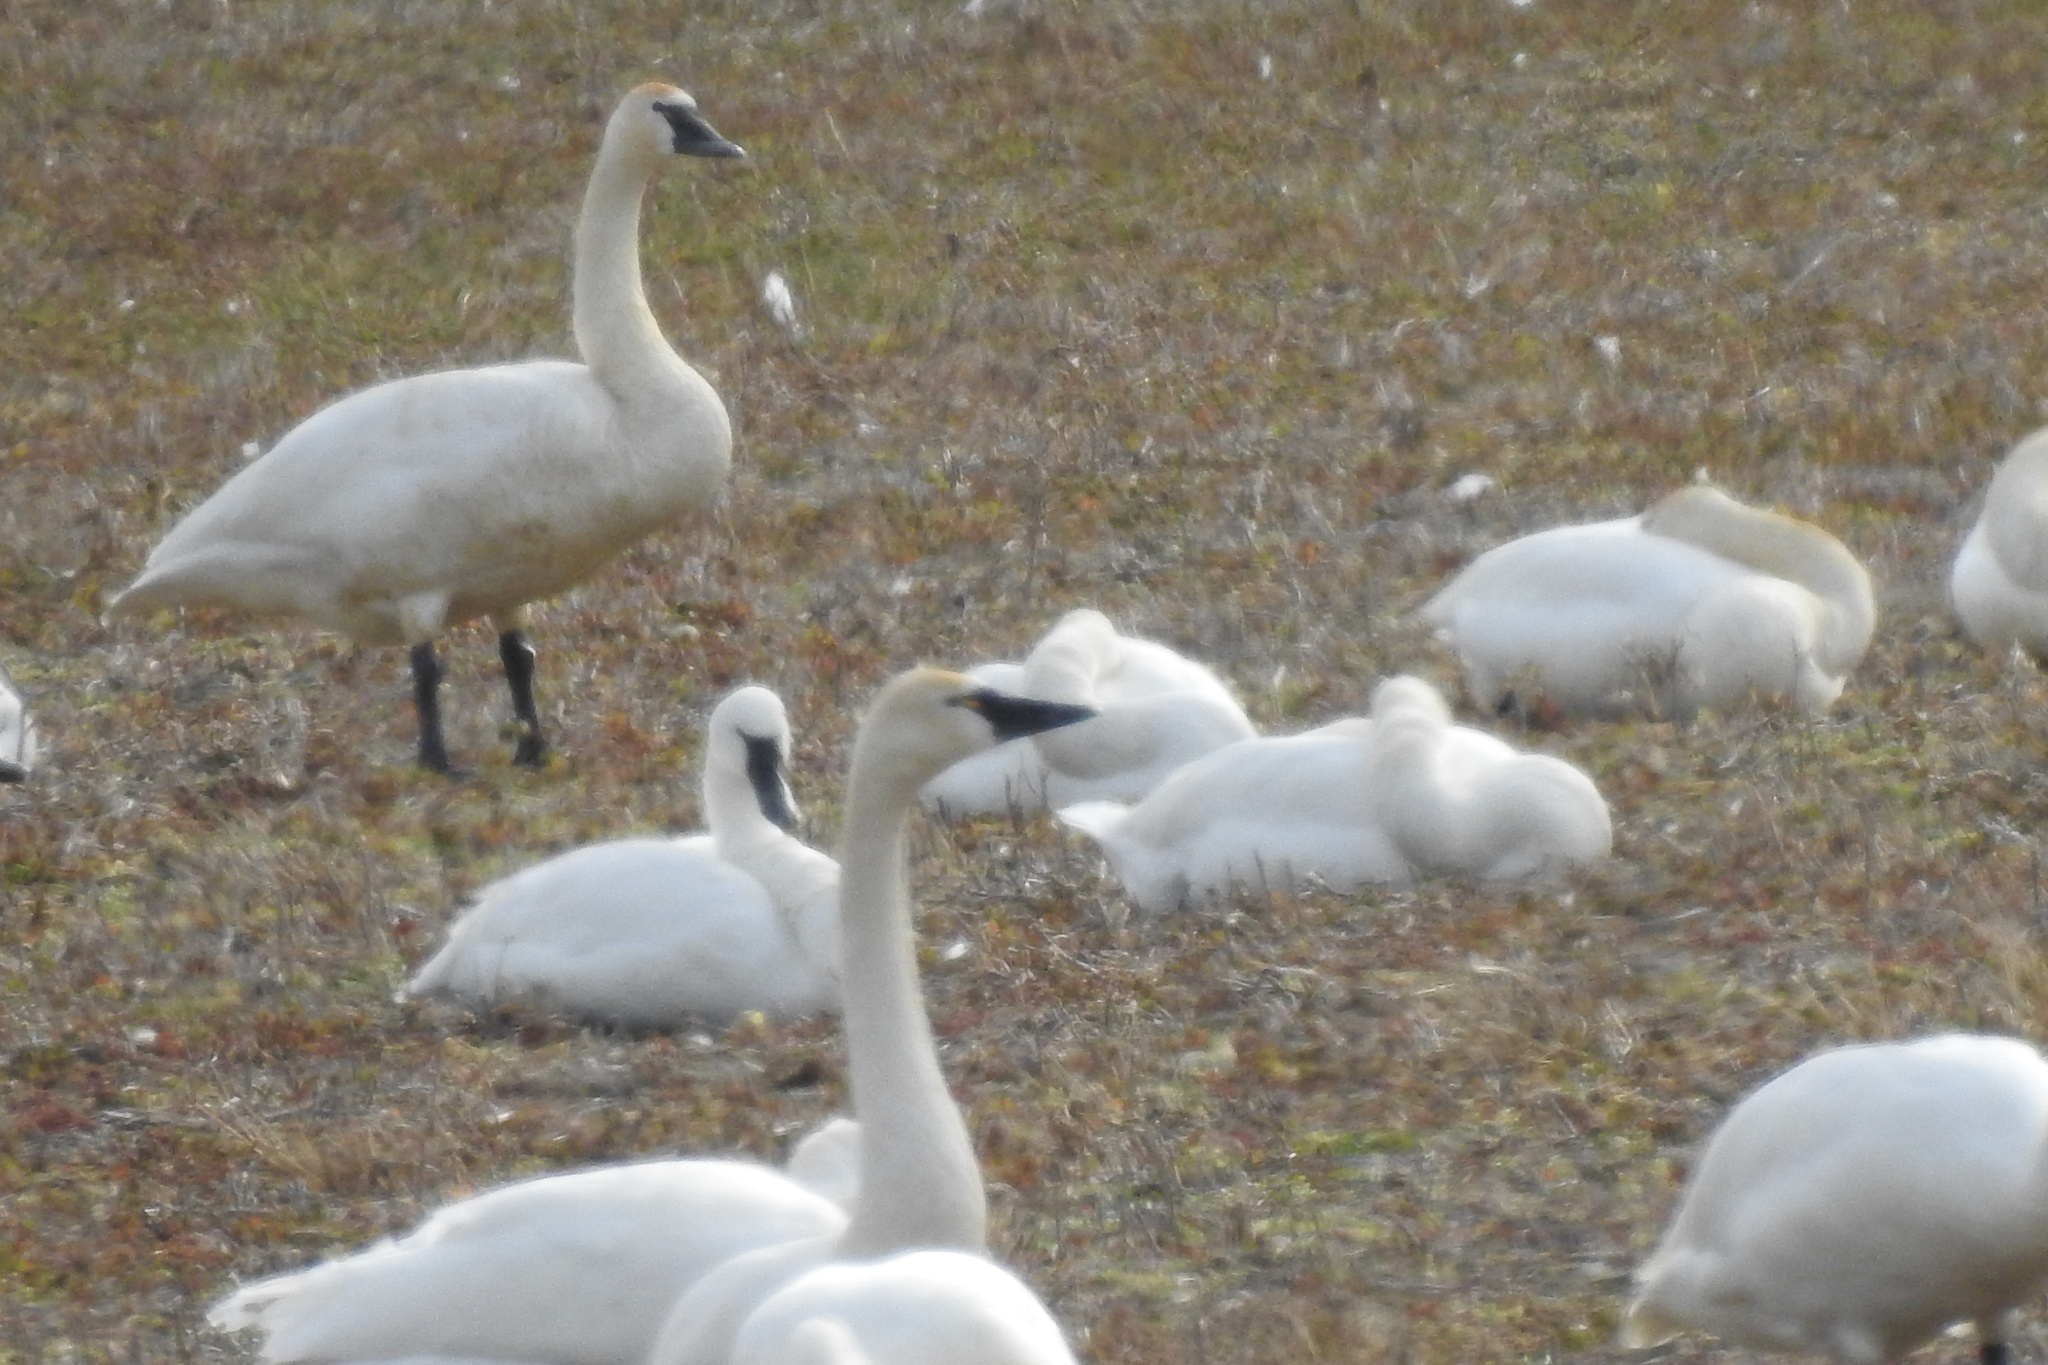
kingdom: Animalia
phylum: Chordata
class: Aves
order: Anseriformes
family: Anatidae
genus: Cygnus
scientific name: Cygnus columbianus
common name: Tundra swan
